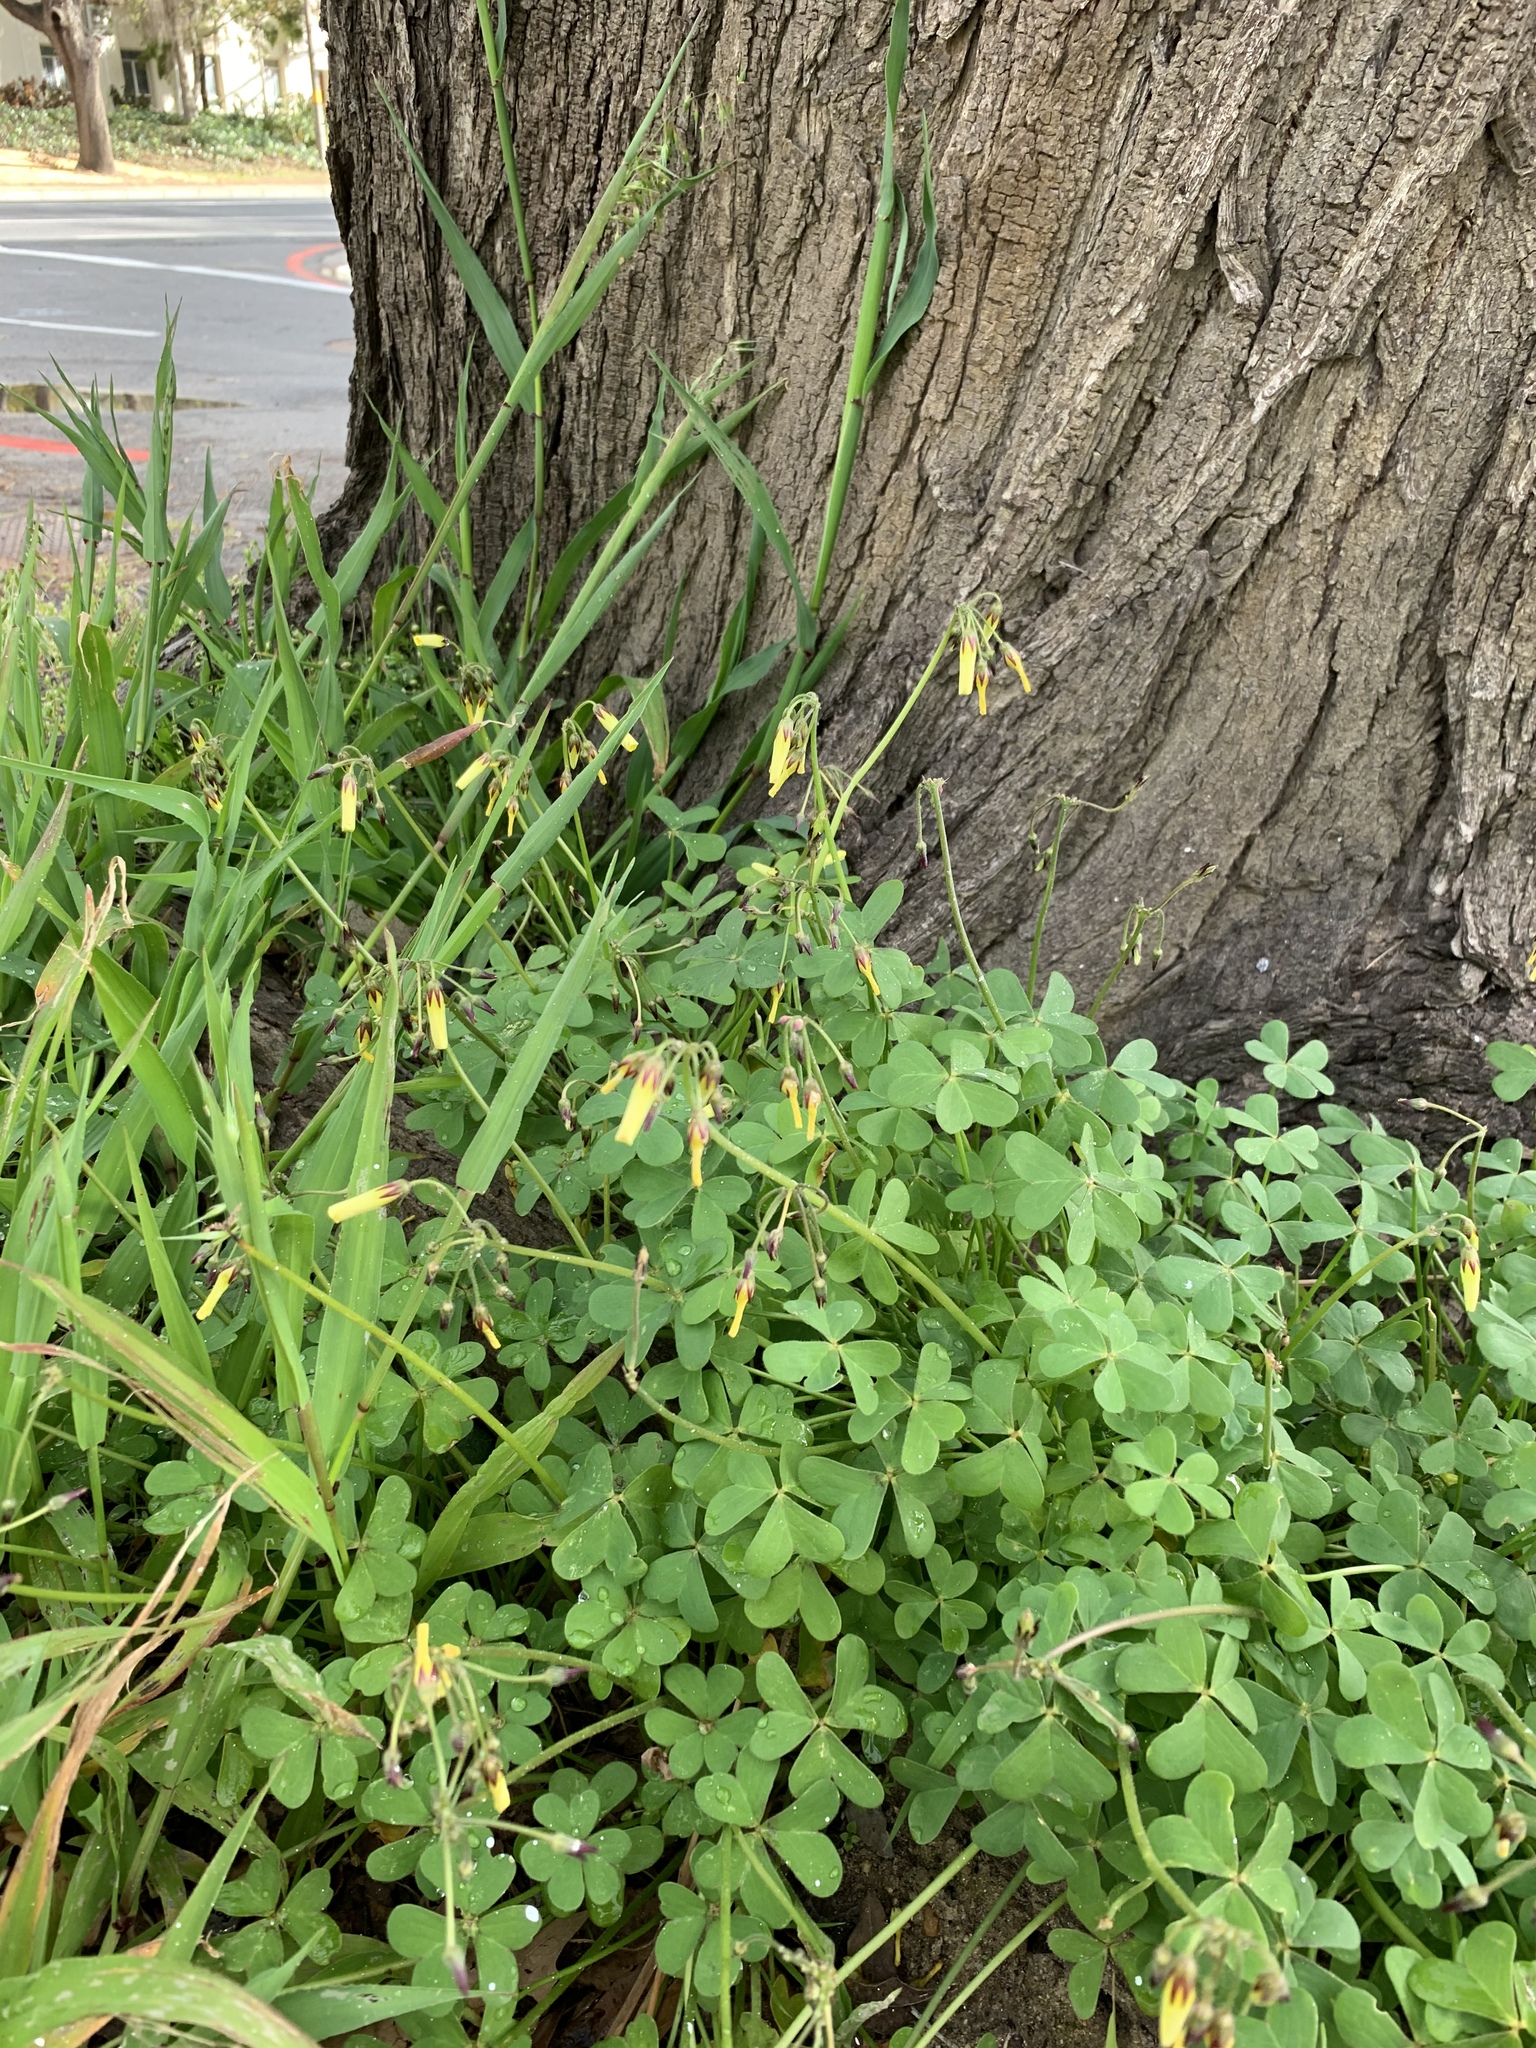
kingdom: Plantae
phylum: Tracheophyta
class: Magnoliopsida
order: Oxalidales
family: Oxalidaceae
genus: Oxalis
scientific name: Oxalis pes-caprae
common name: Bermuda-buttercup
